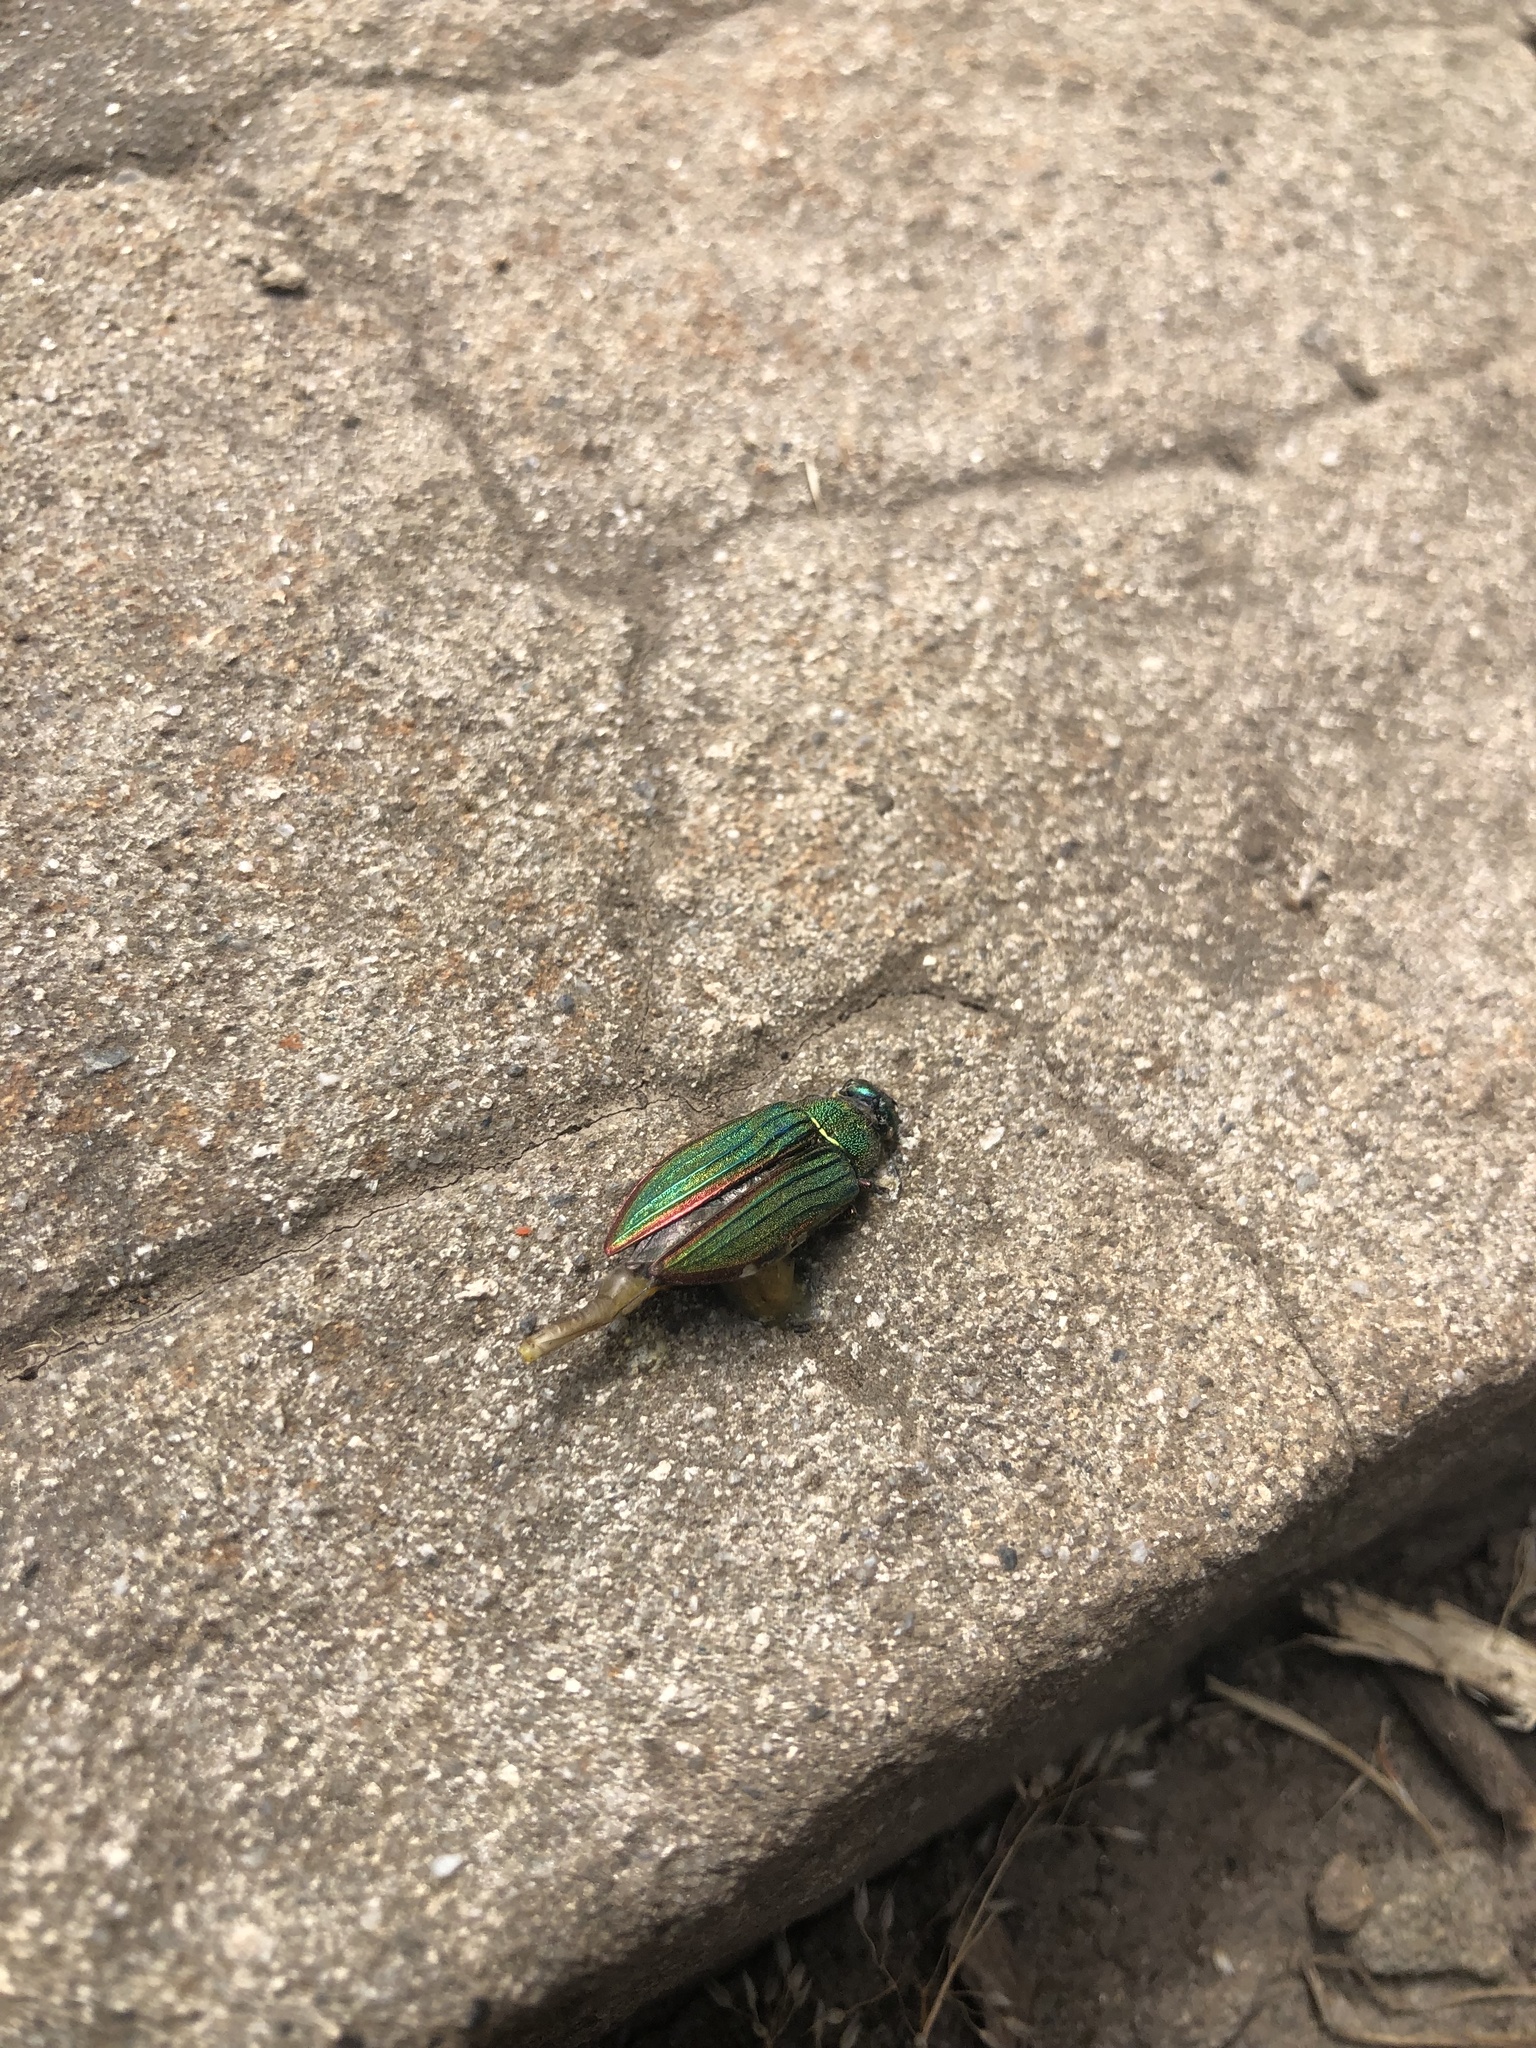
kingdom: Animalia
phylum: Arthropoda
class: Insecta
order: Coleoptera
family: Buprestidae
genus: Buprestis
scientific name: Buprestis aurulenta
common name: Golden buprestid
